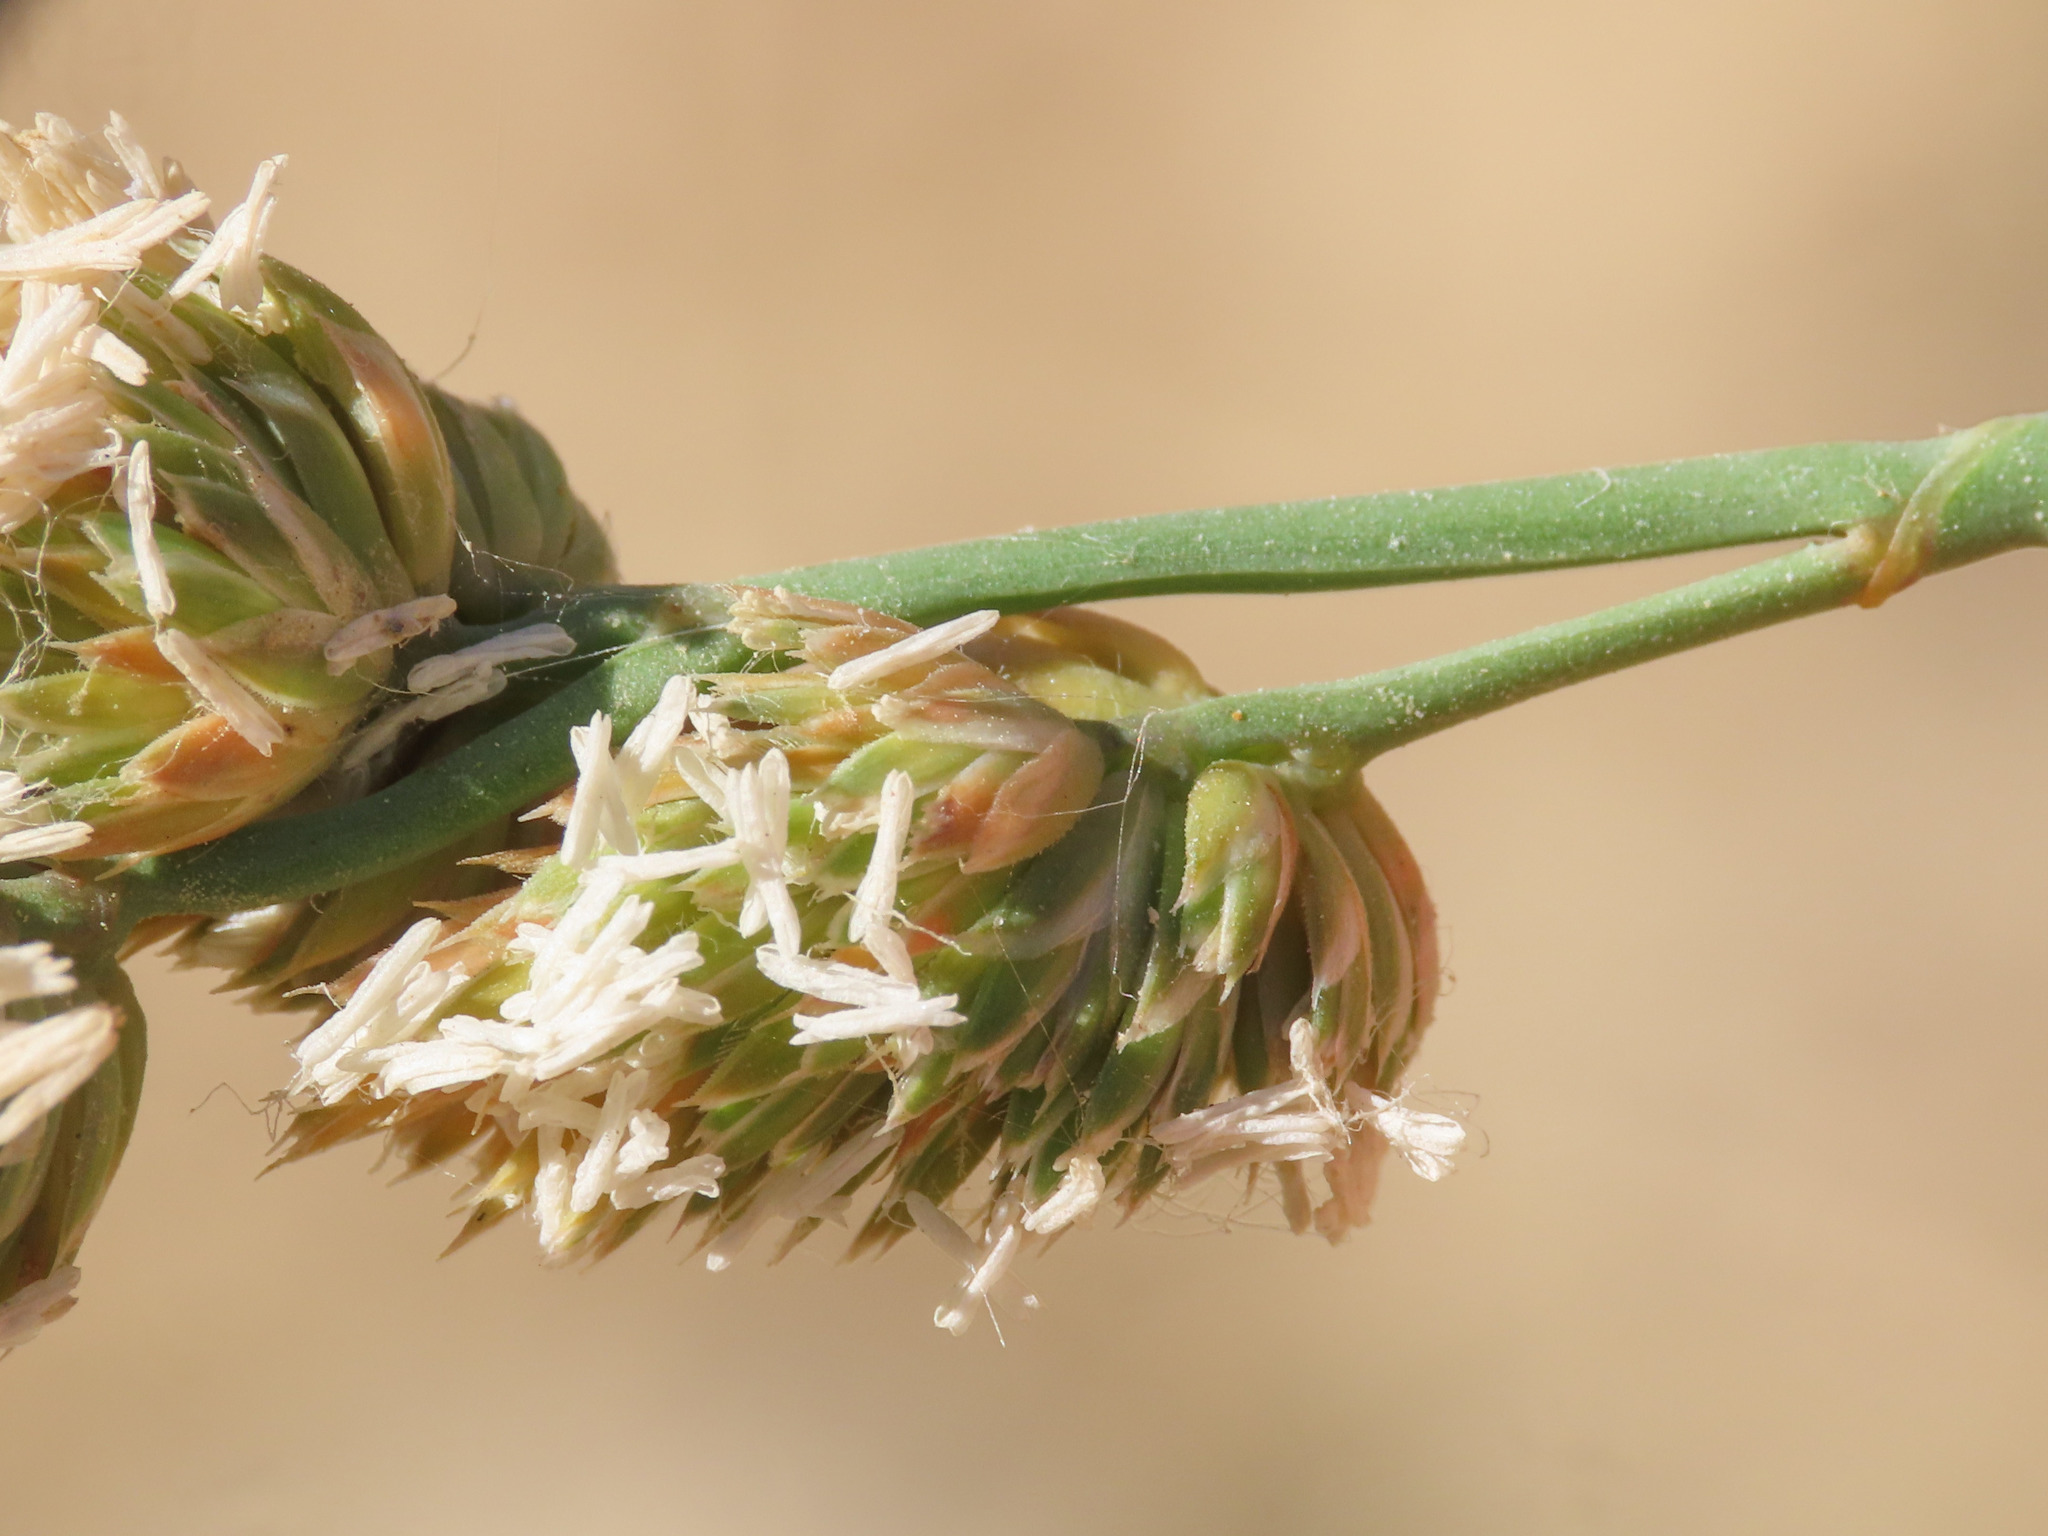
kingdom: Plantae
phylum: Tracheophyta
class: Liliopsida
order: Poales
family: Poaceae
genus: Dactylis
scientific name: Dactylis glomerata
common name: Orchardgrass
